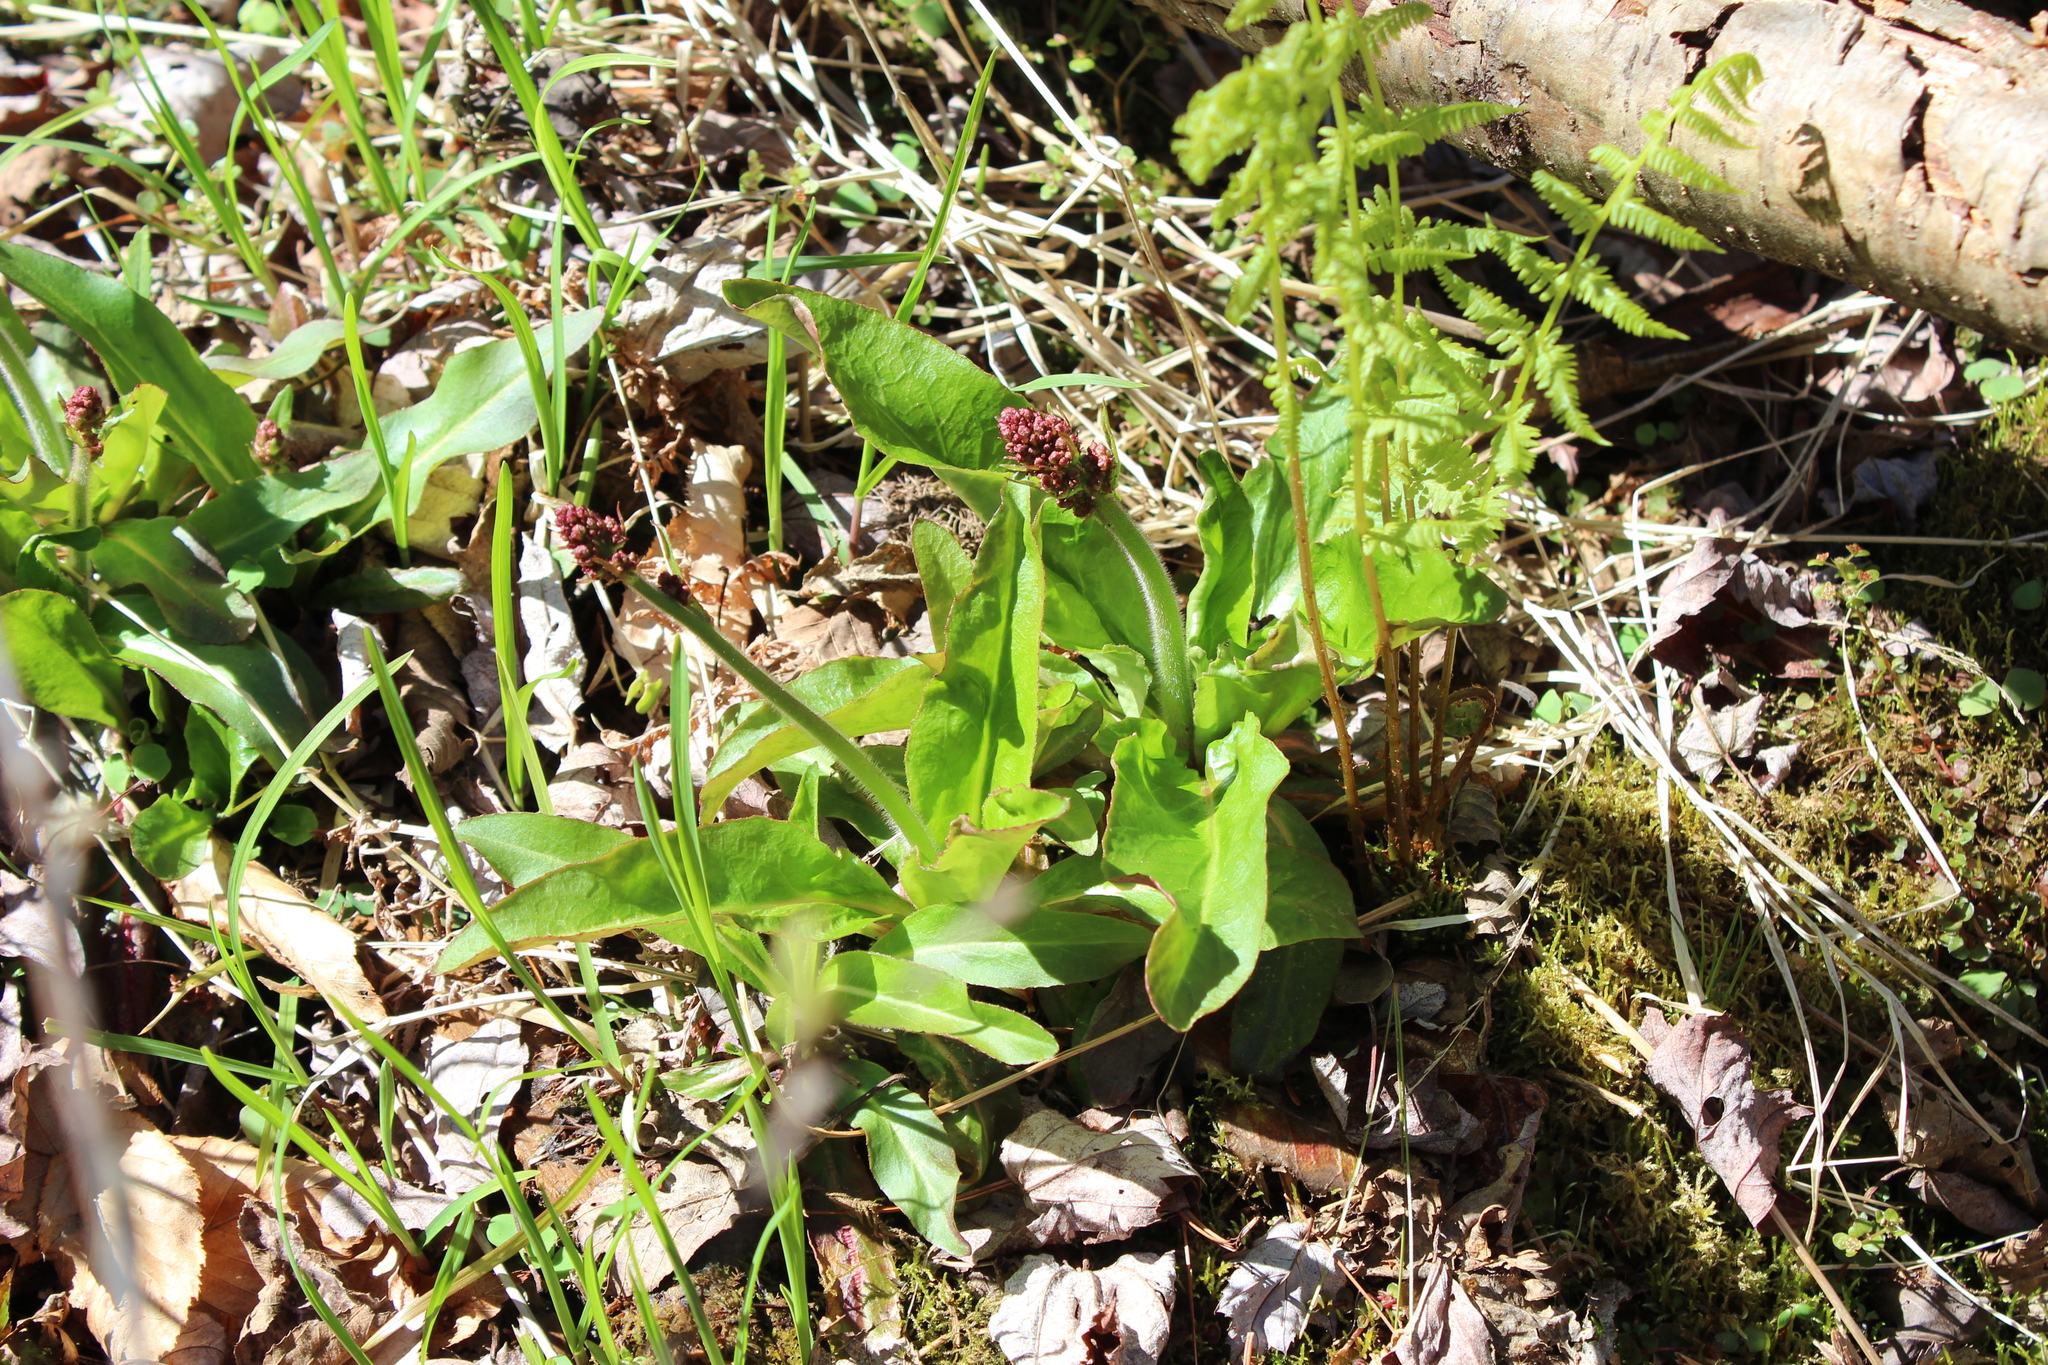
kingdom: Plantae
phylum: Tracheophyta
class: Magnoliopsida
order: Saxifragales
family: Saxifragaceae
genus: Micranthes
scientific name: Micranthes pensylvanica
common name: Marsh saxifrage
